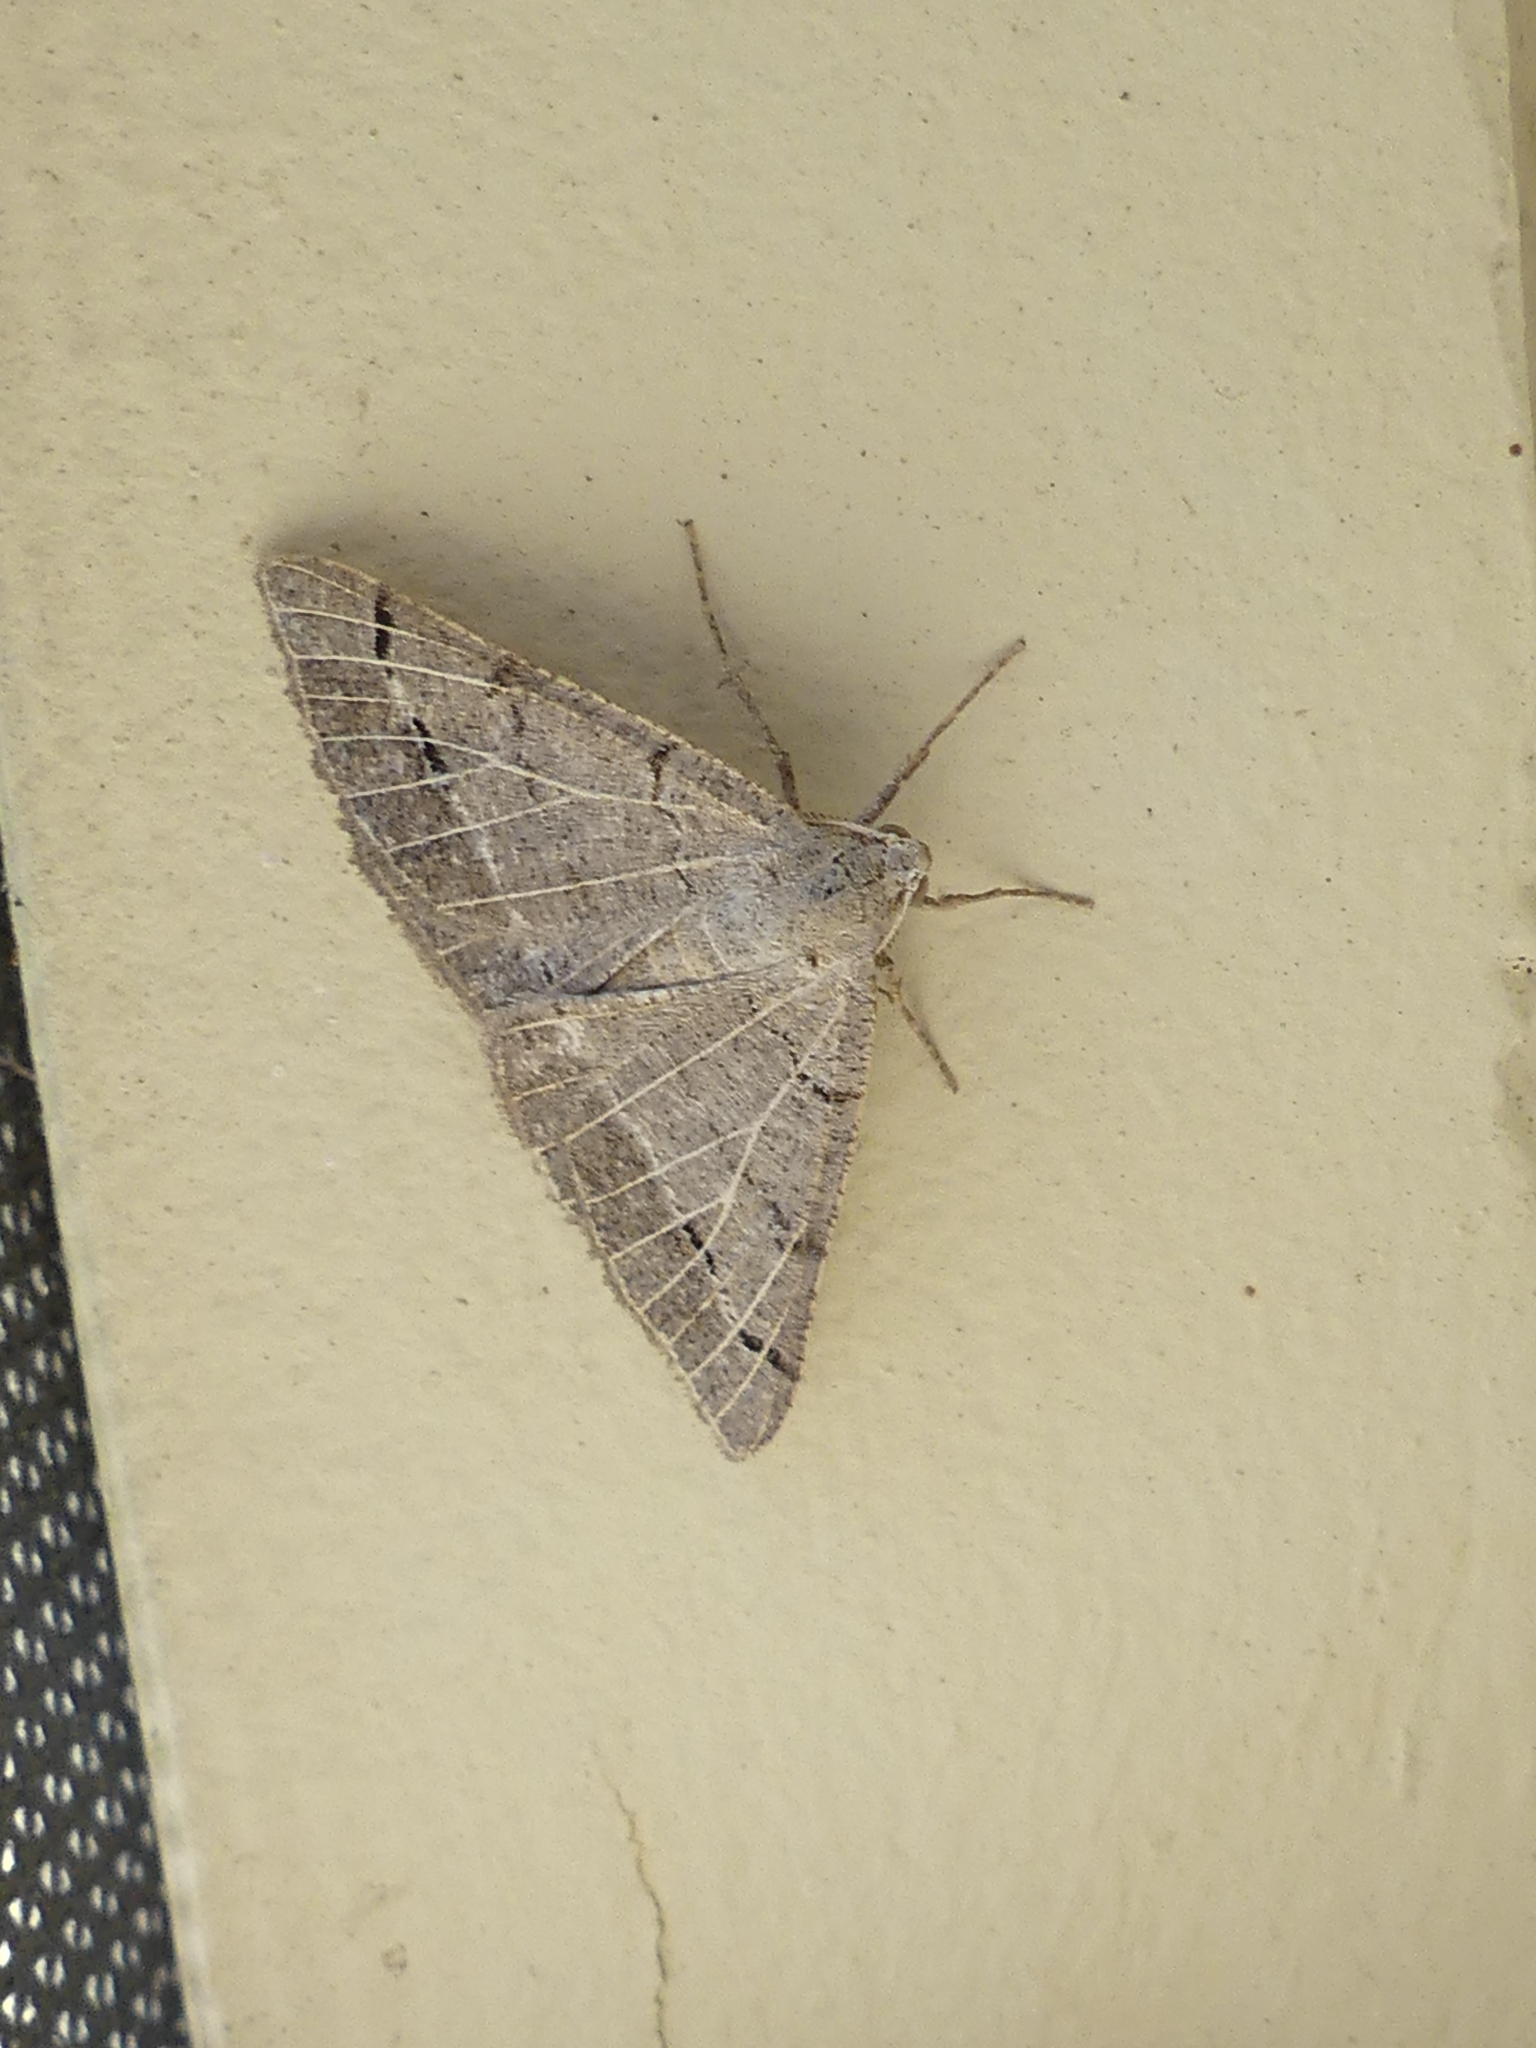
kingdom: Animalia
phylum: Arthropoda
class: Insecta
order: Lepidoptera
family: Geometridae
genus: Isturgia
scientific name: Isturgia dislocaria
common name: Pale-viened enconista
